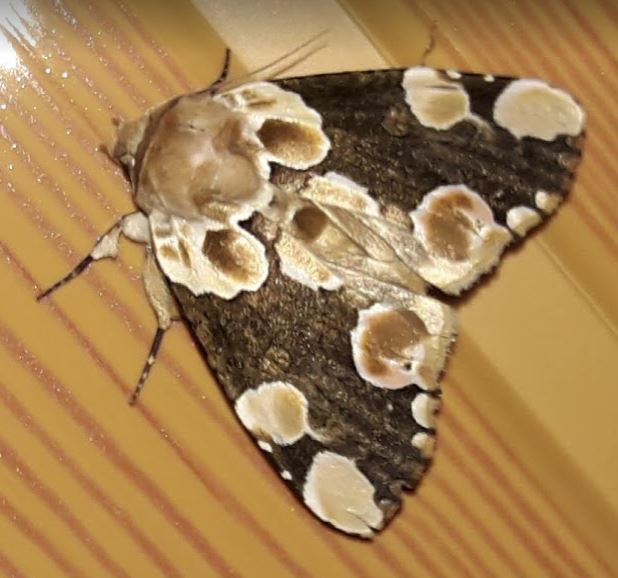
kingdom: Animalia
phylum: Arthropoda
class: Insecta
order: Lepidoptera
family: Drepanidae
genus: Thyatira
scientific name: Thyatira mexicana
